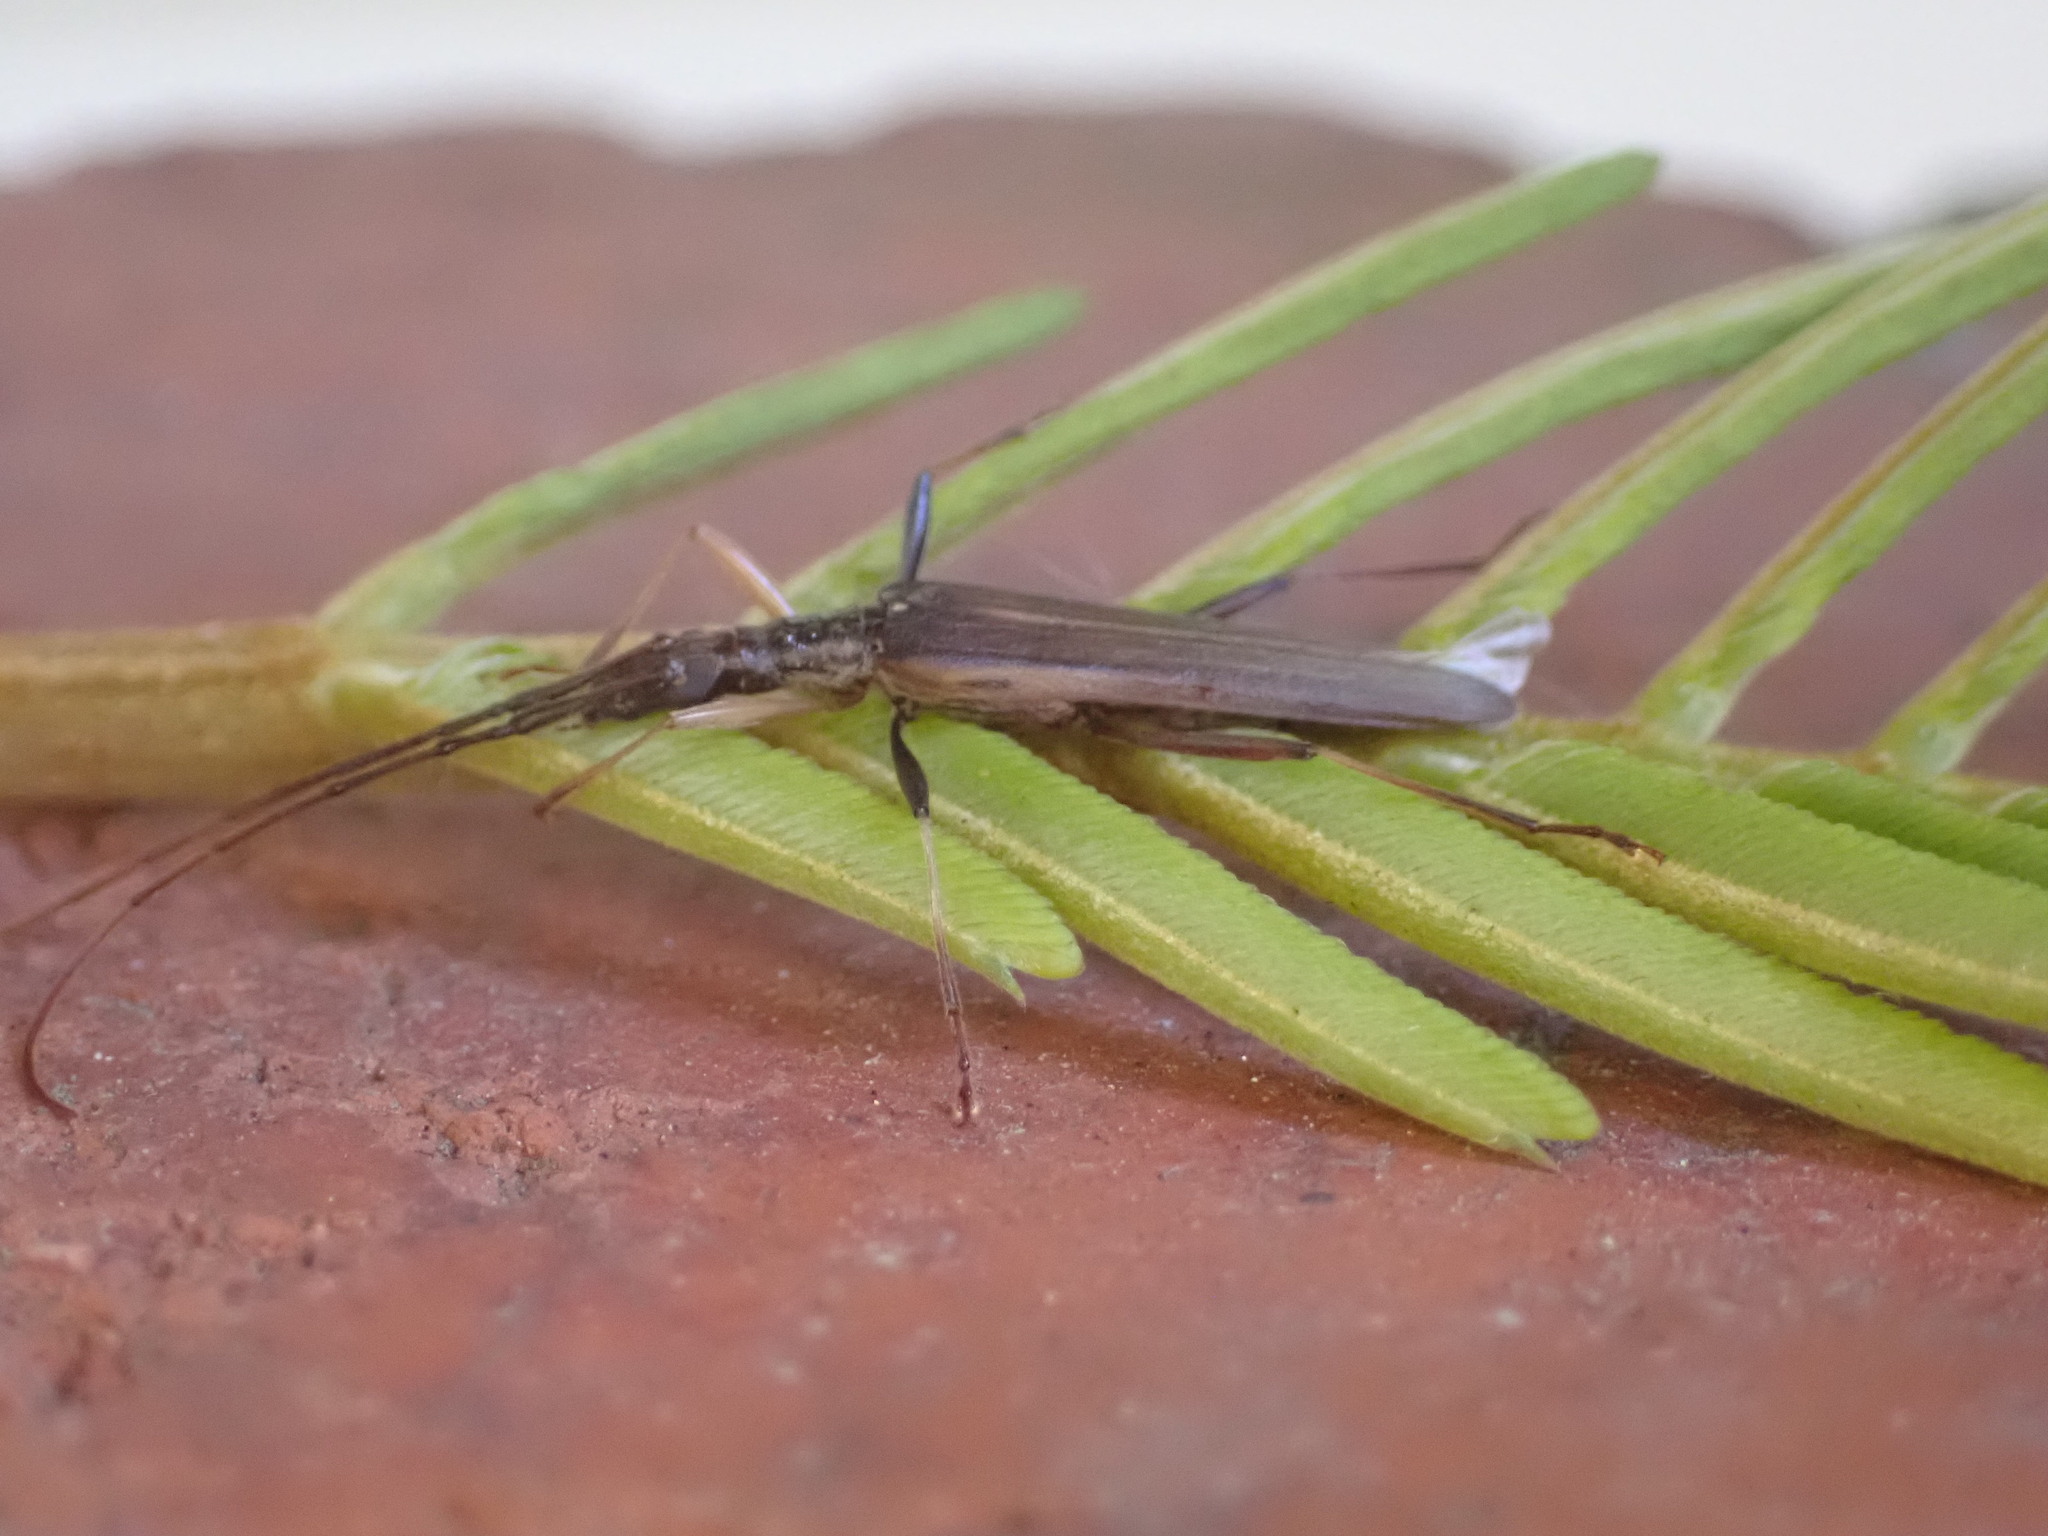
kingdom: Animalia
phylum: Arthropoda
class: Insecta
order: Coleoptera
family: Cerambycidae
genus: Stenopotes
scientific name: Stenopotes pallidus
